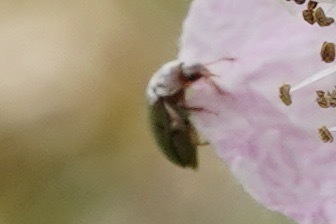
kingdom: Animalia
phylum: Arthropoda
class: Insecta
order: Coleoptera
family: Byturidae
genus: Byturus
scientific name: Byturus tomentosus
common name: Beetle
